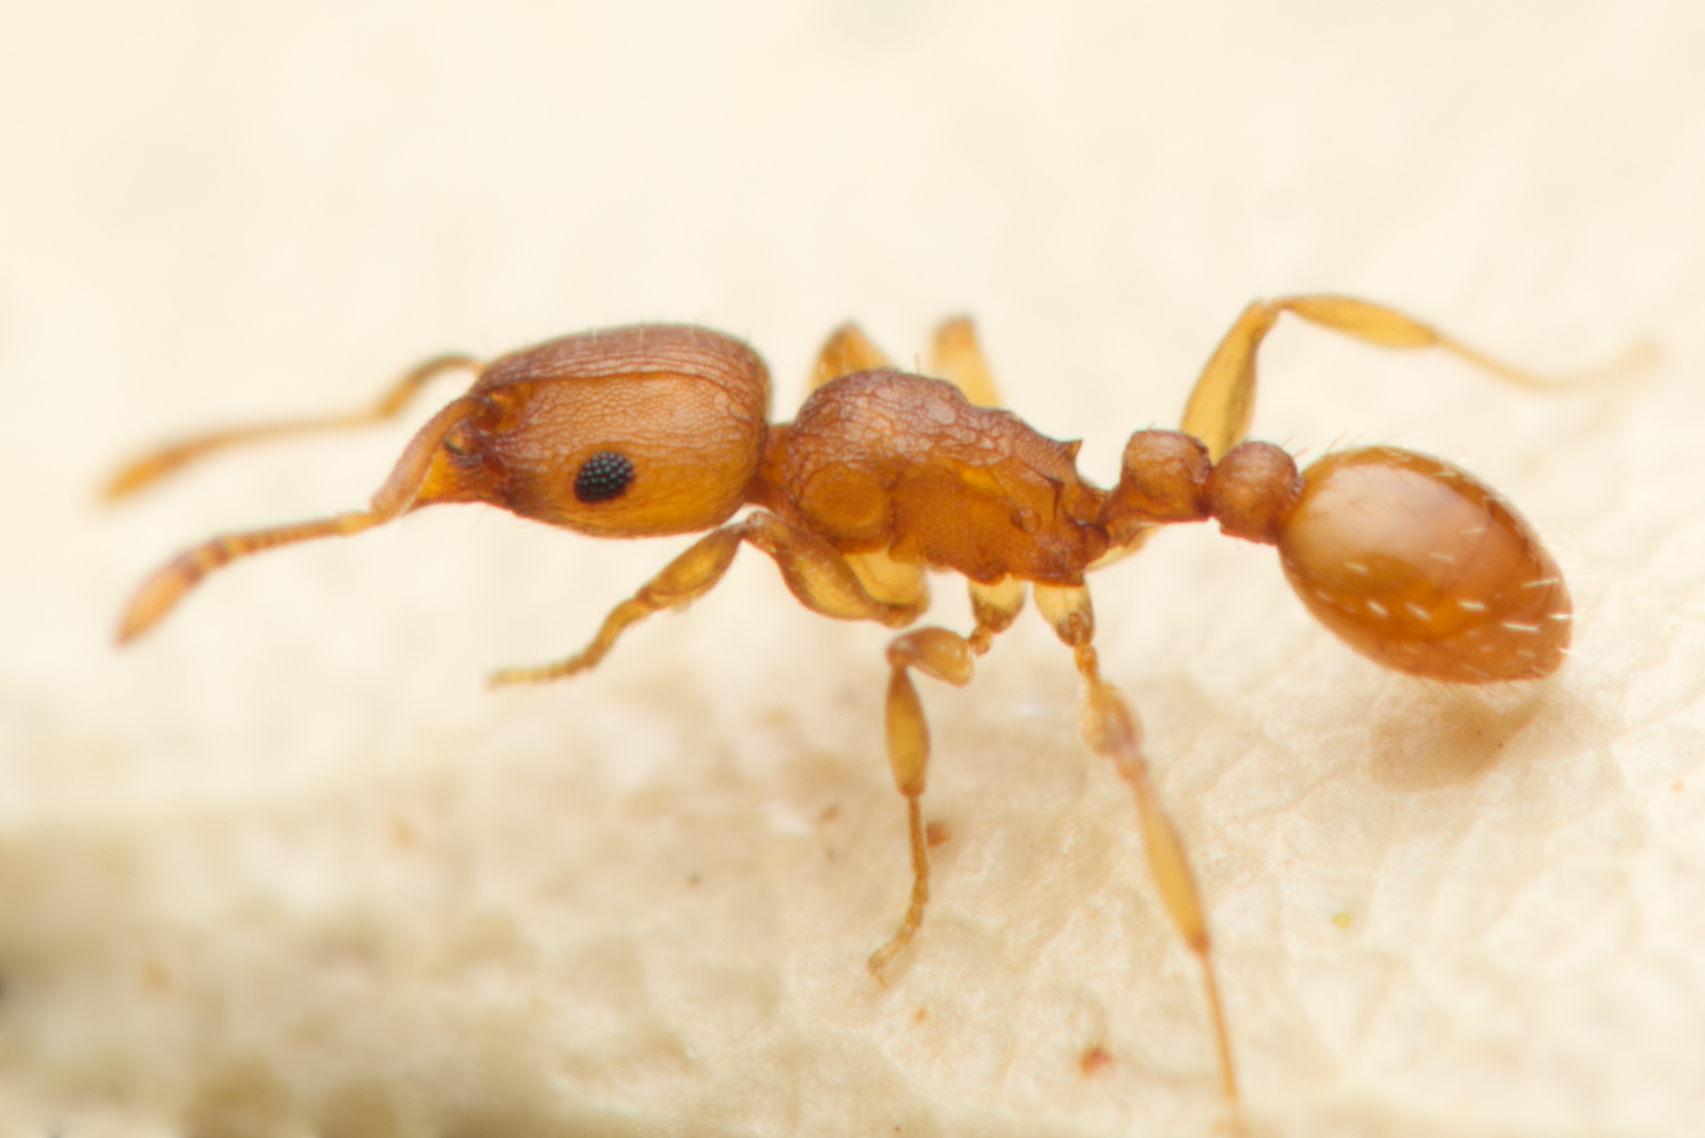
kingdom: Animalia
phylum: Arthropoda
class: Insecta
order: Hymenoptera
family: Formicidae
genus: Tetramorium
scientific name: Tetramorium simillimum
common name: Ant
